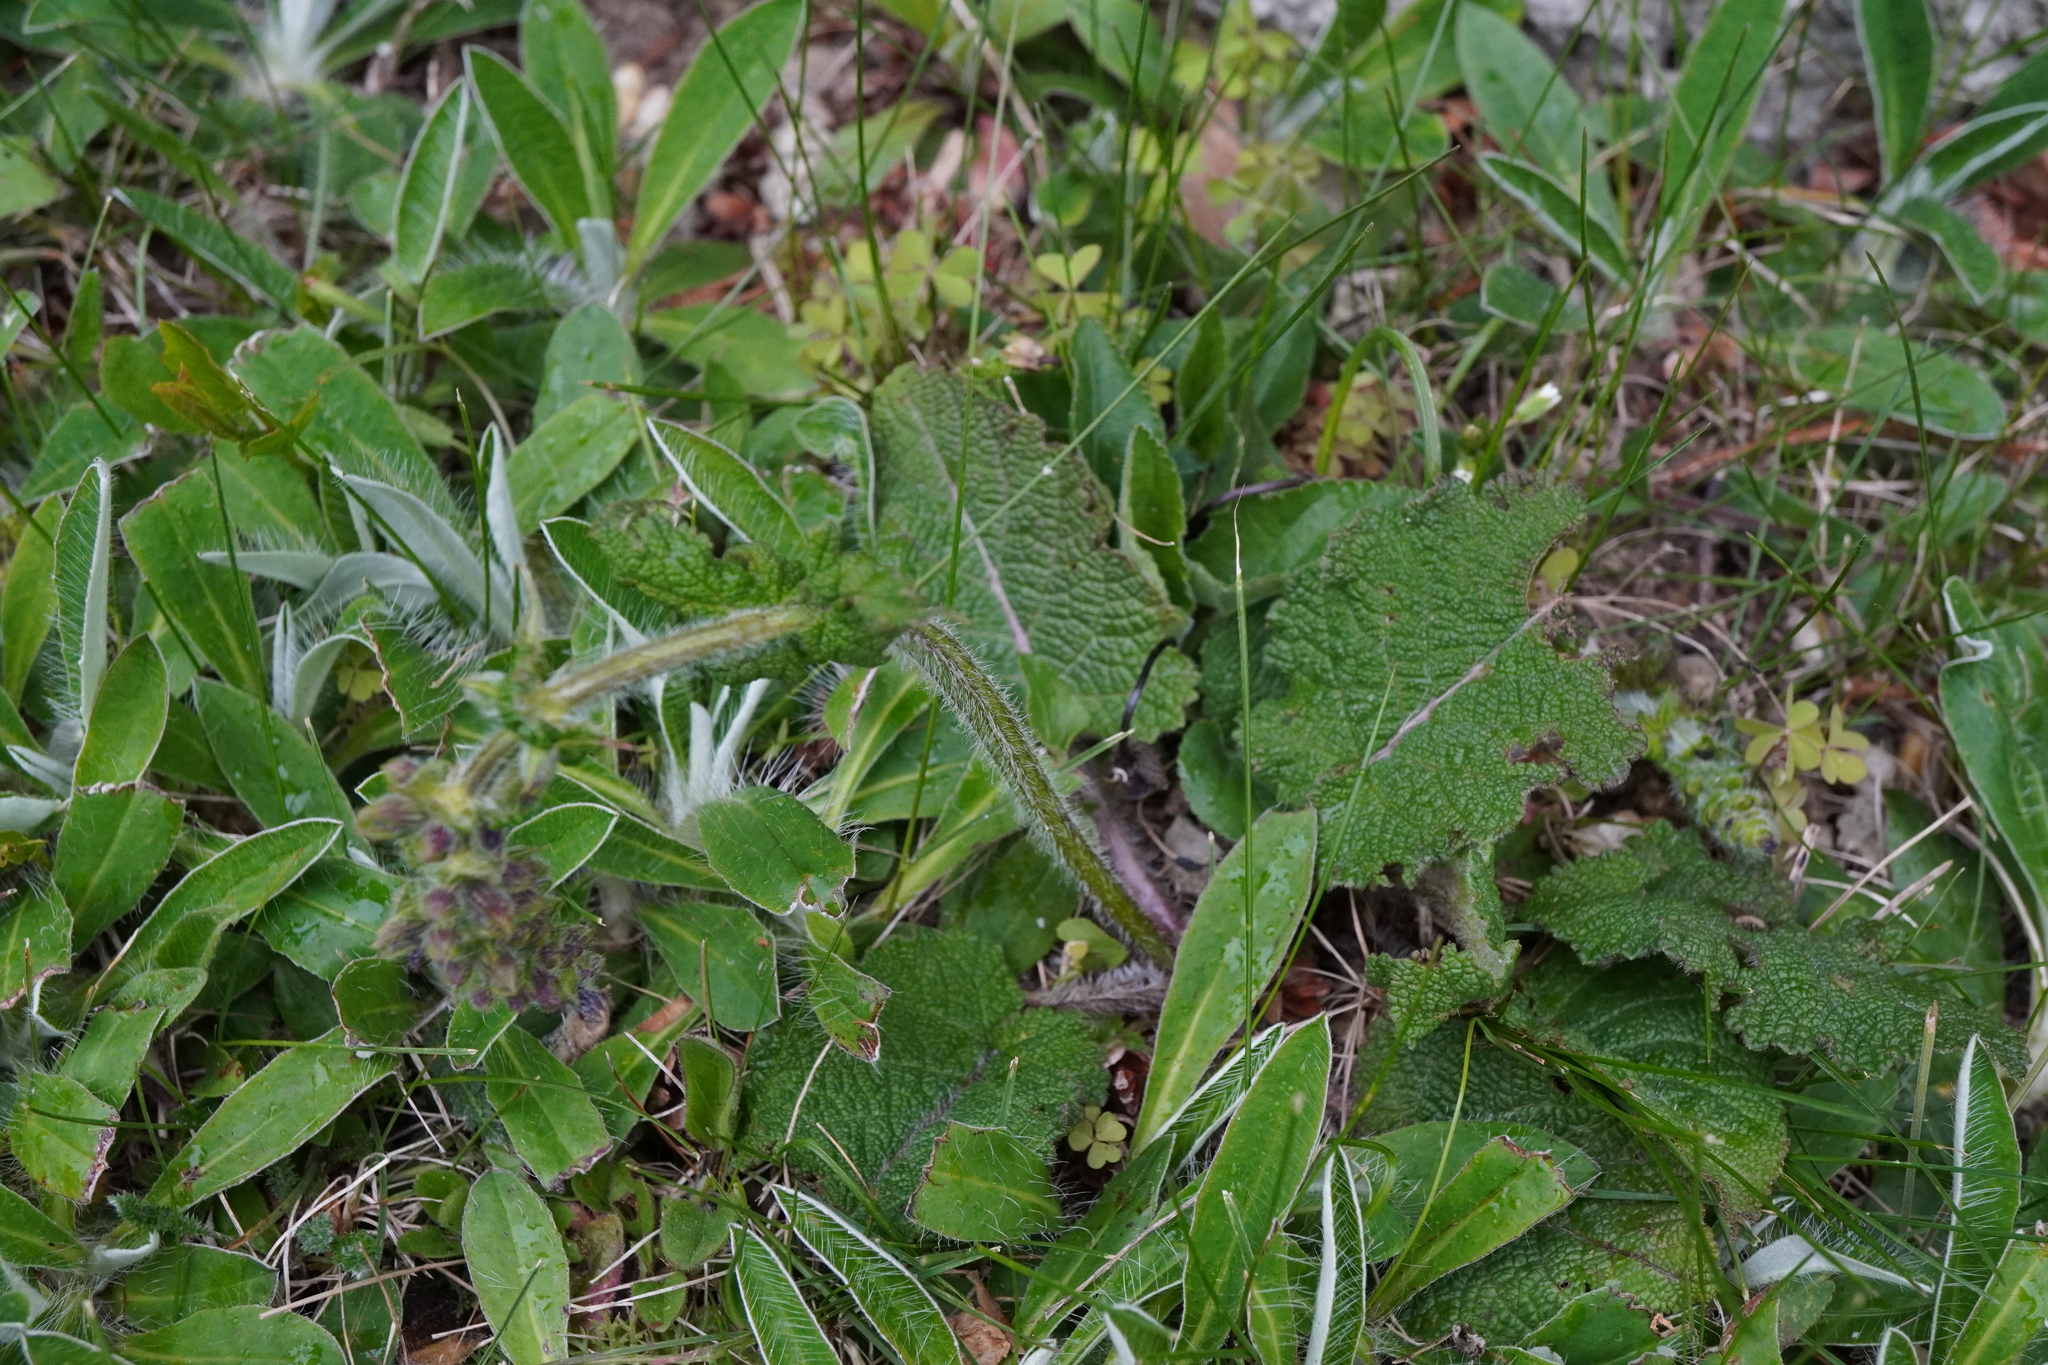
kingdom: Plantae
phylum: Tracheophyta
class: Magnoliopsida
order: Lamiales
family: Lamiaceae
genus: Salvia
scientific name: Salvia pratensis
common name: Meadow sage
